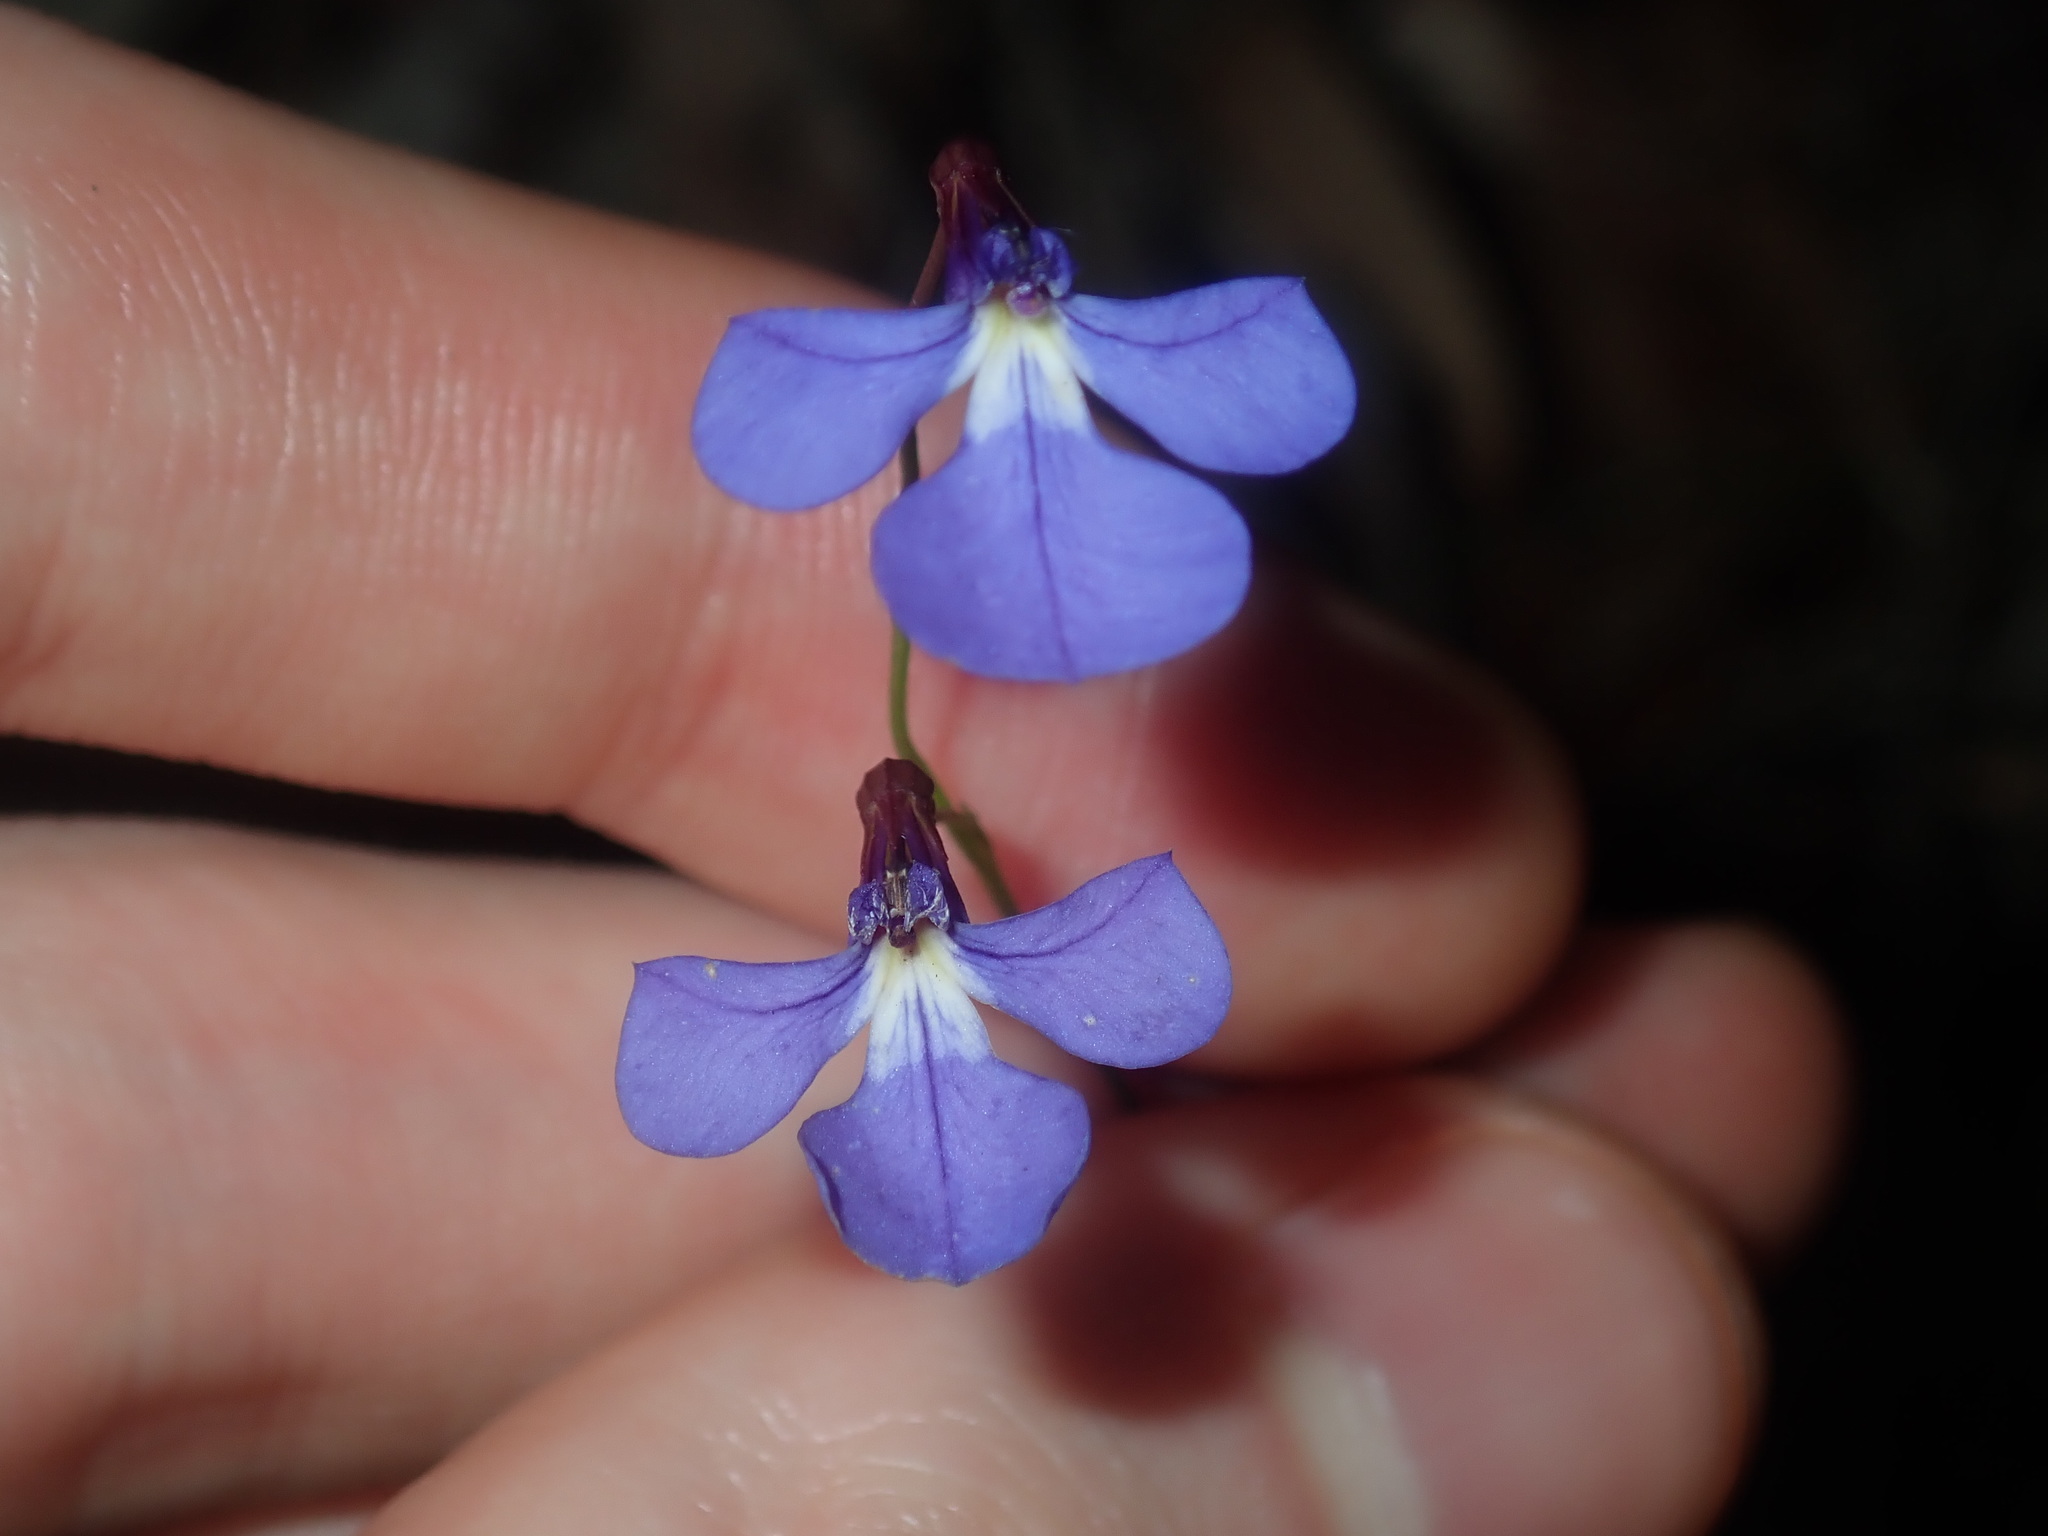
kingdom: Plantae
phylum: Tracheophyta
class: Magnoliopsida
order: Asterales
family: Campanulaceae
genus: Lobelia
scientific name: Lobelia andrewsii
